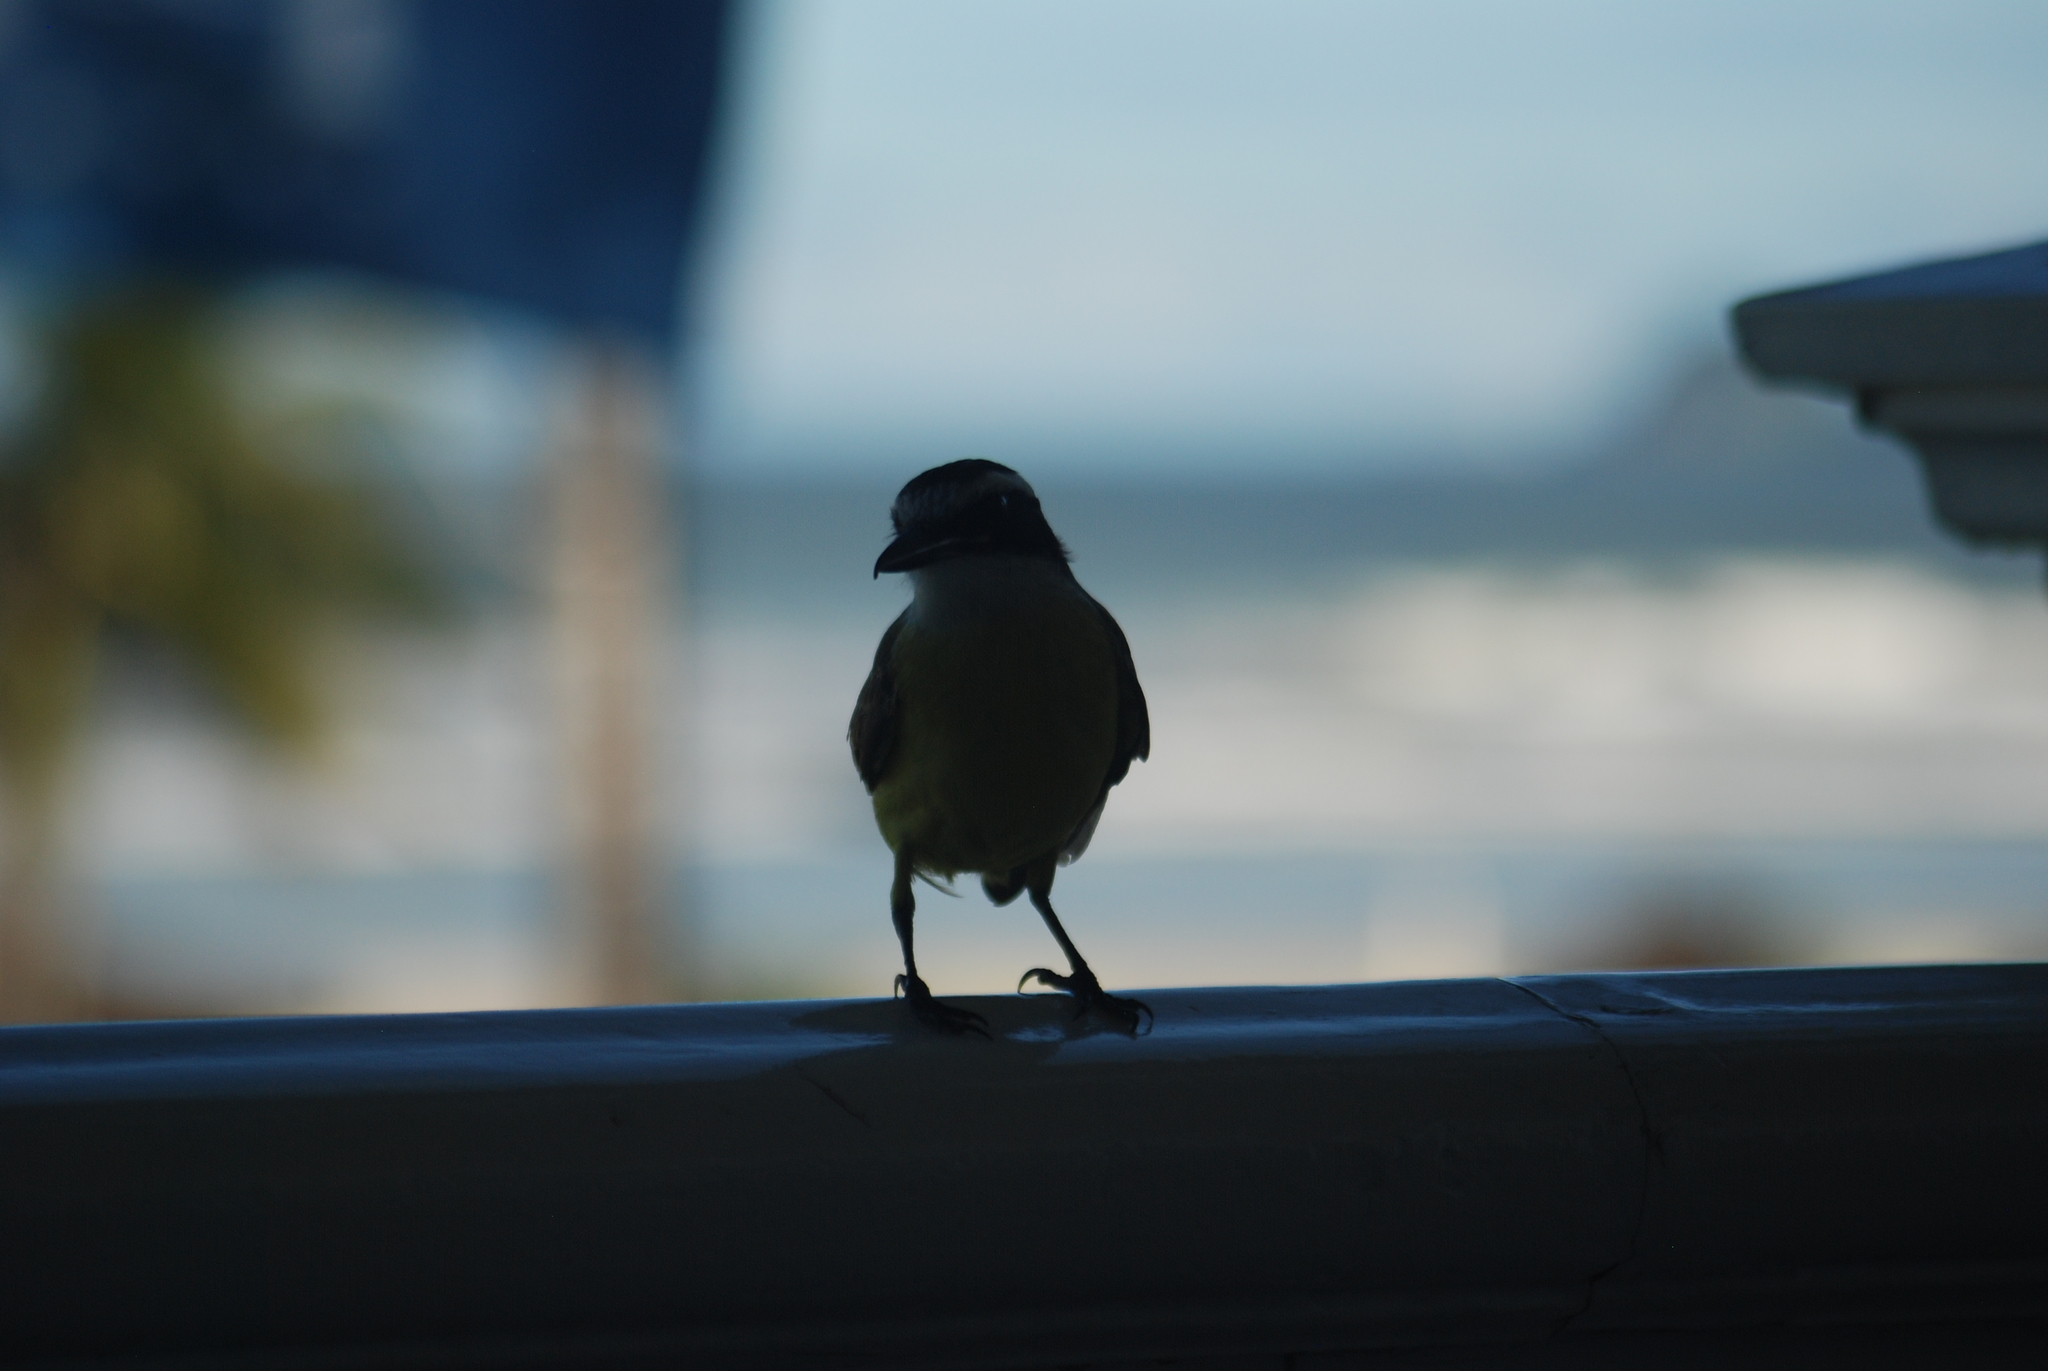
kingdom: Animalia
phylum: Chordata
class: Aves
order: Passeriformes
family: Tyrannidae
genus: Pitangus
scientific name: Pitangus sulphuratus
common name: Great kiskadee
